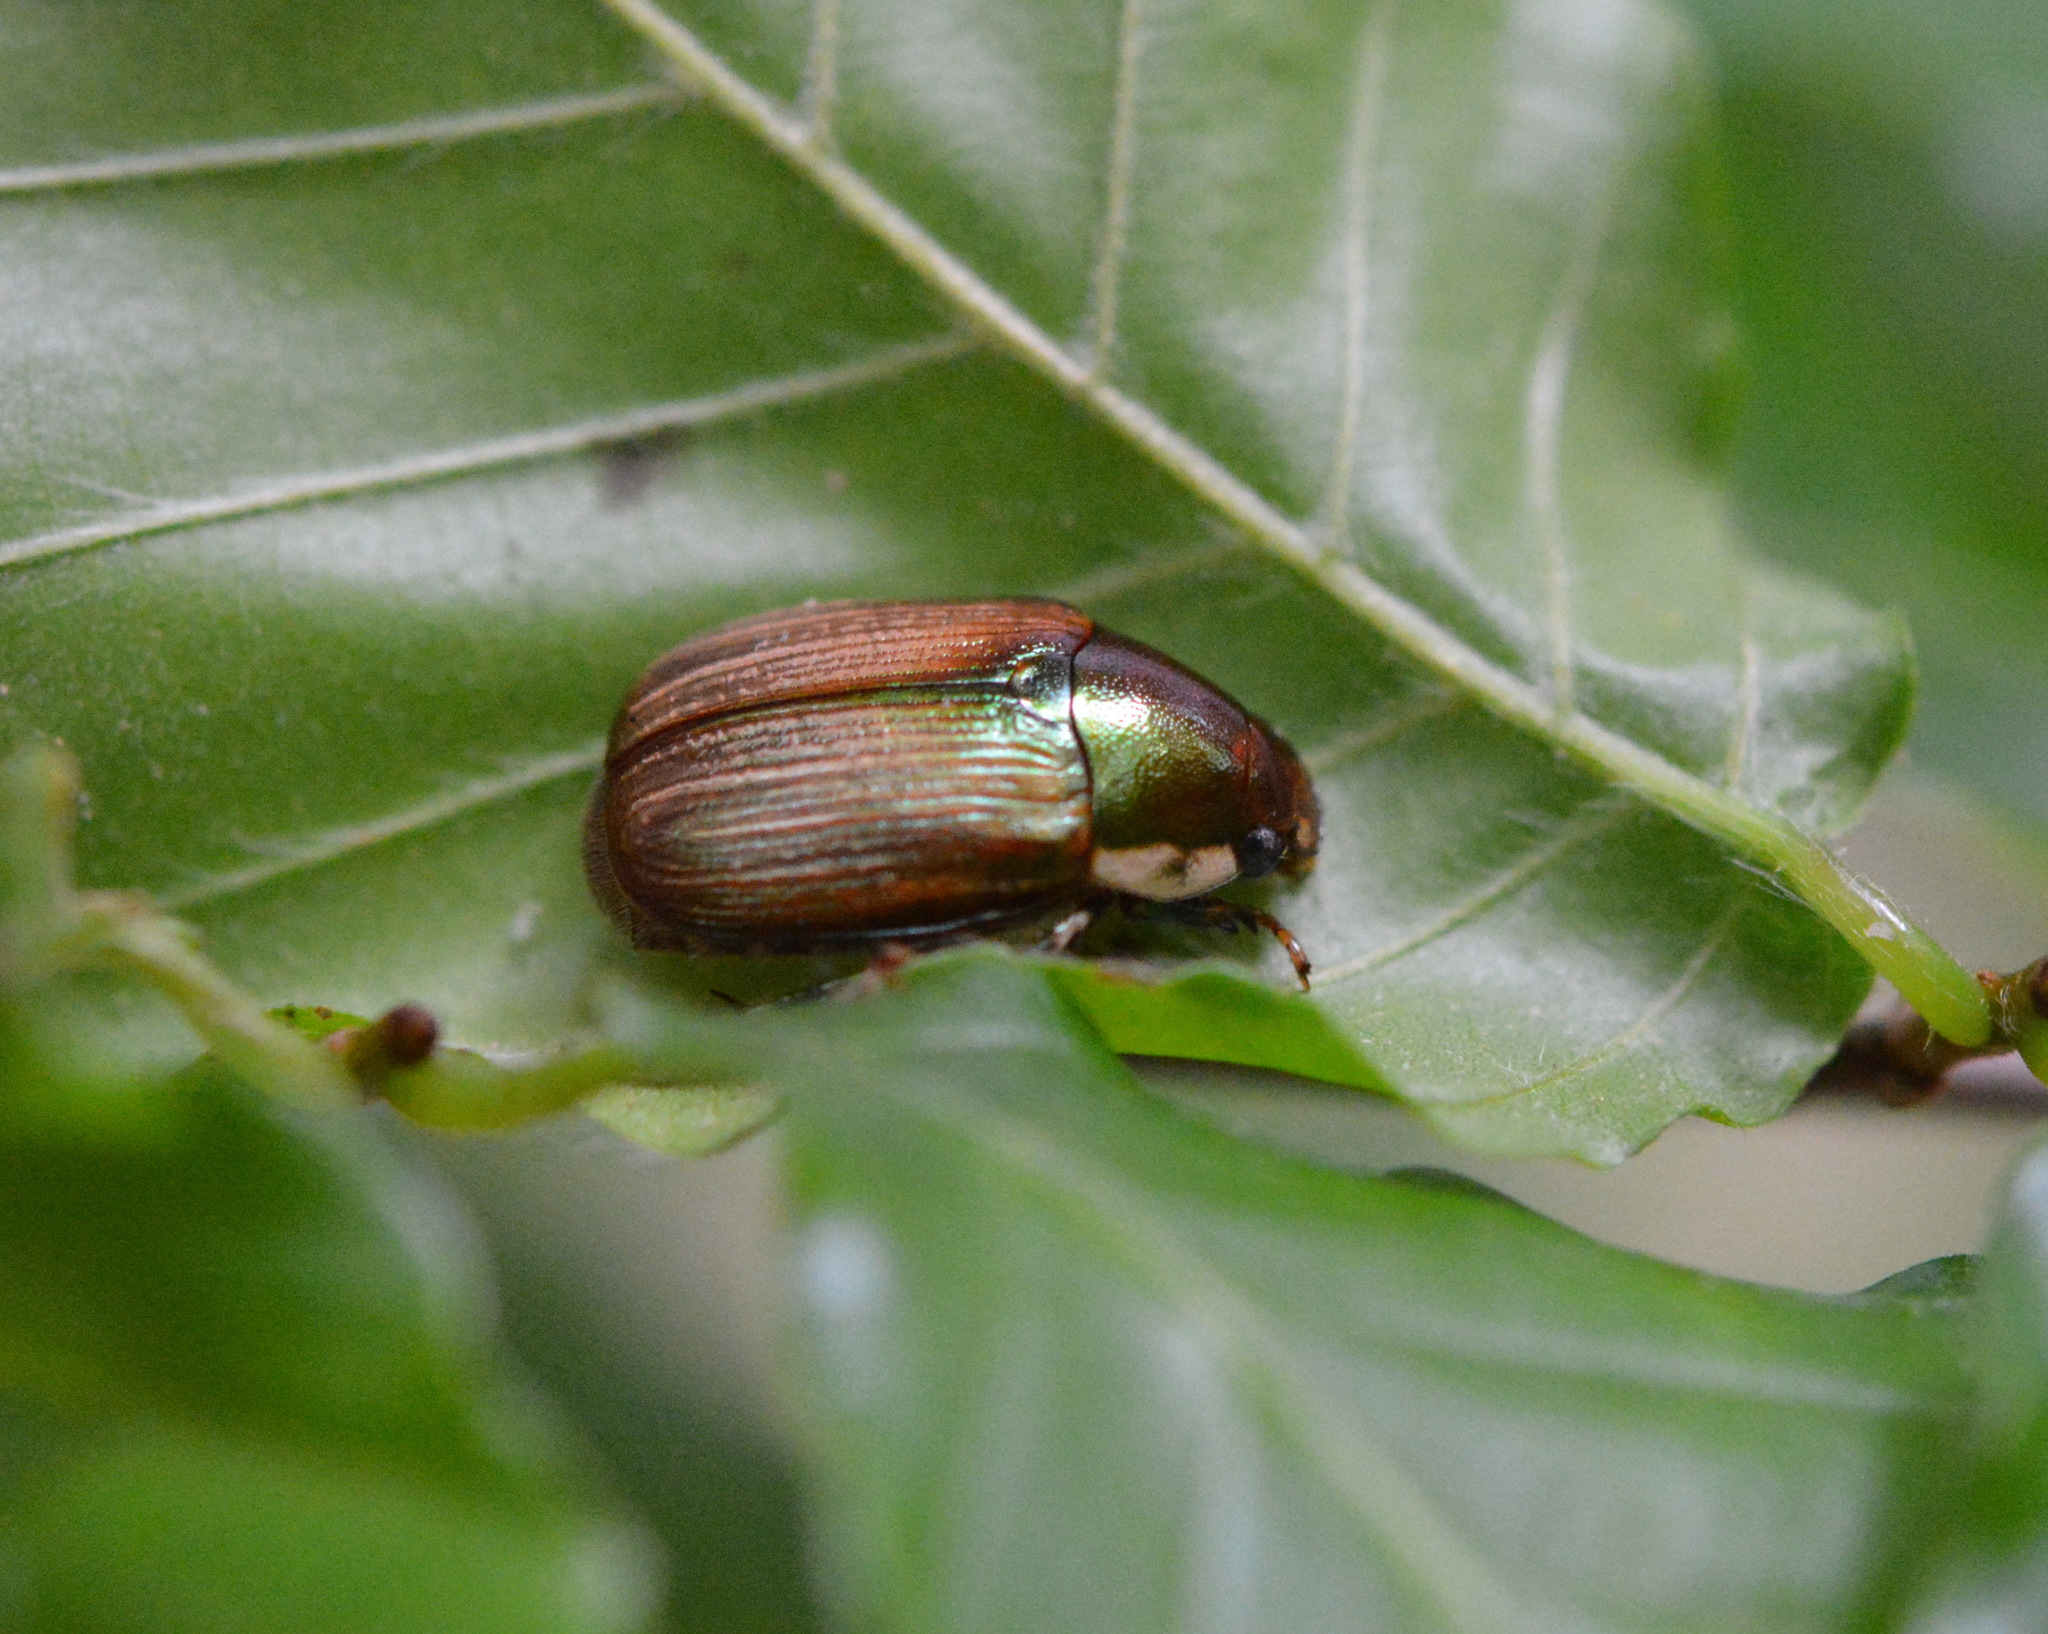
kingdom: Animalia
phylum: Arthropoda
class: Insecta
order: Coleoptera
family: Scarabaeidae
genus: Callistethus
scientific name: Callistethus marginatus
